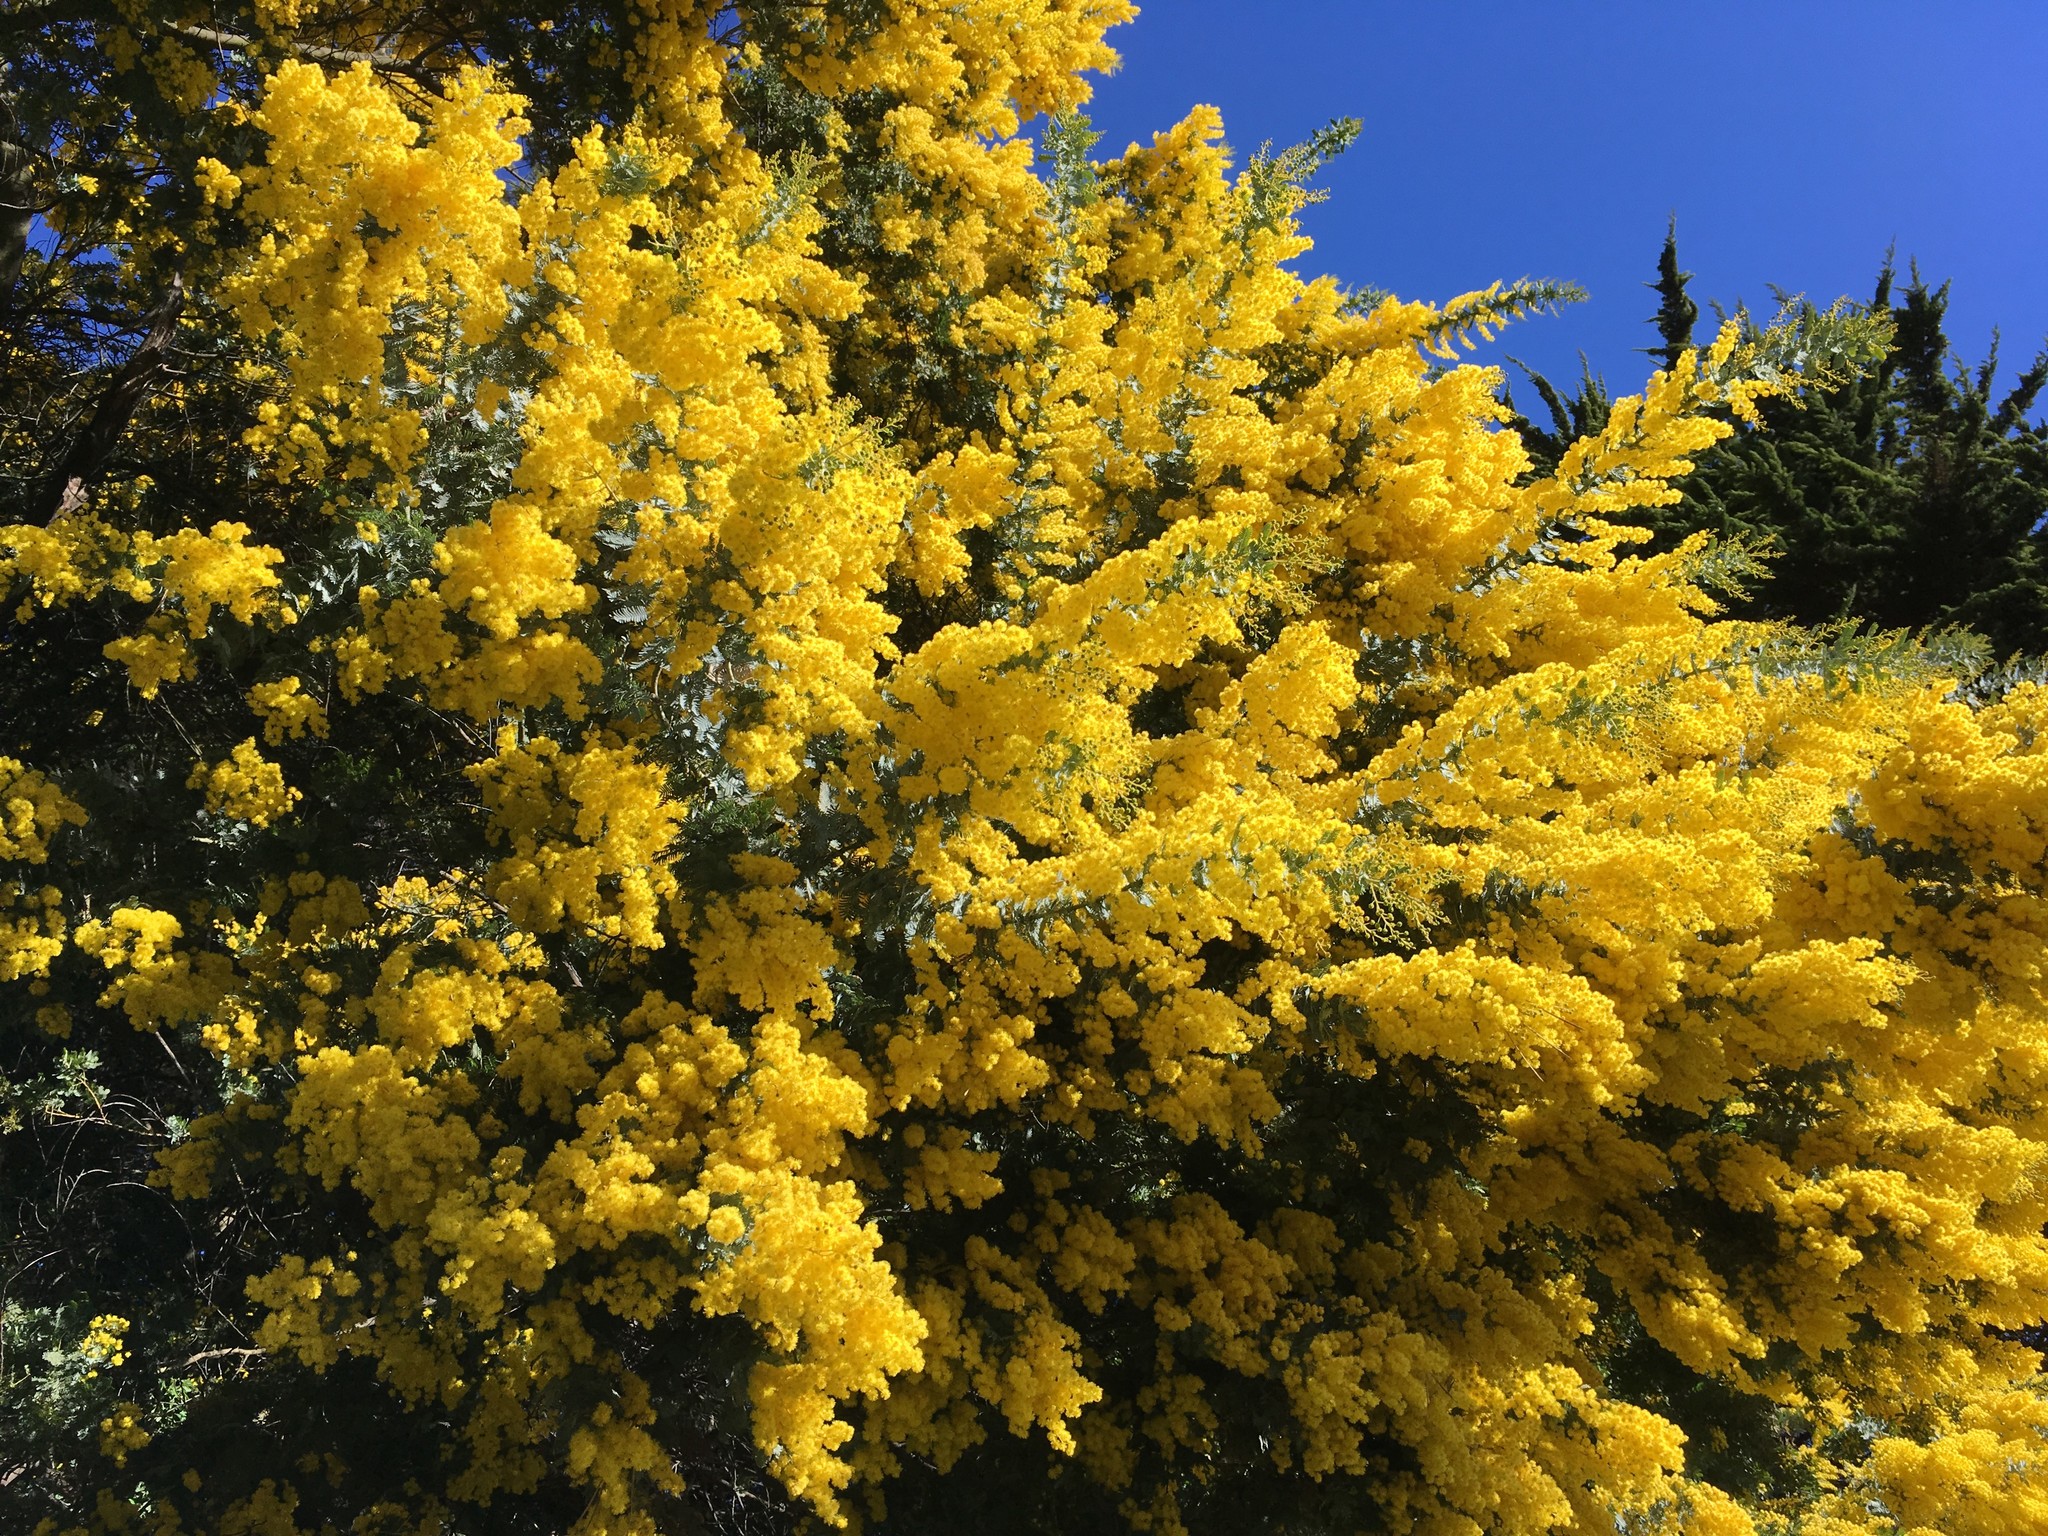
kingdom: Plantae
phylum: Tracheophyta
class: Magnoliopsida
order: Fabales
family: Fabaceae
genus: Acacia
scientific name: Acacia baileyana
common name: Cootamundra wattle
